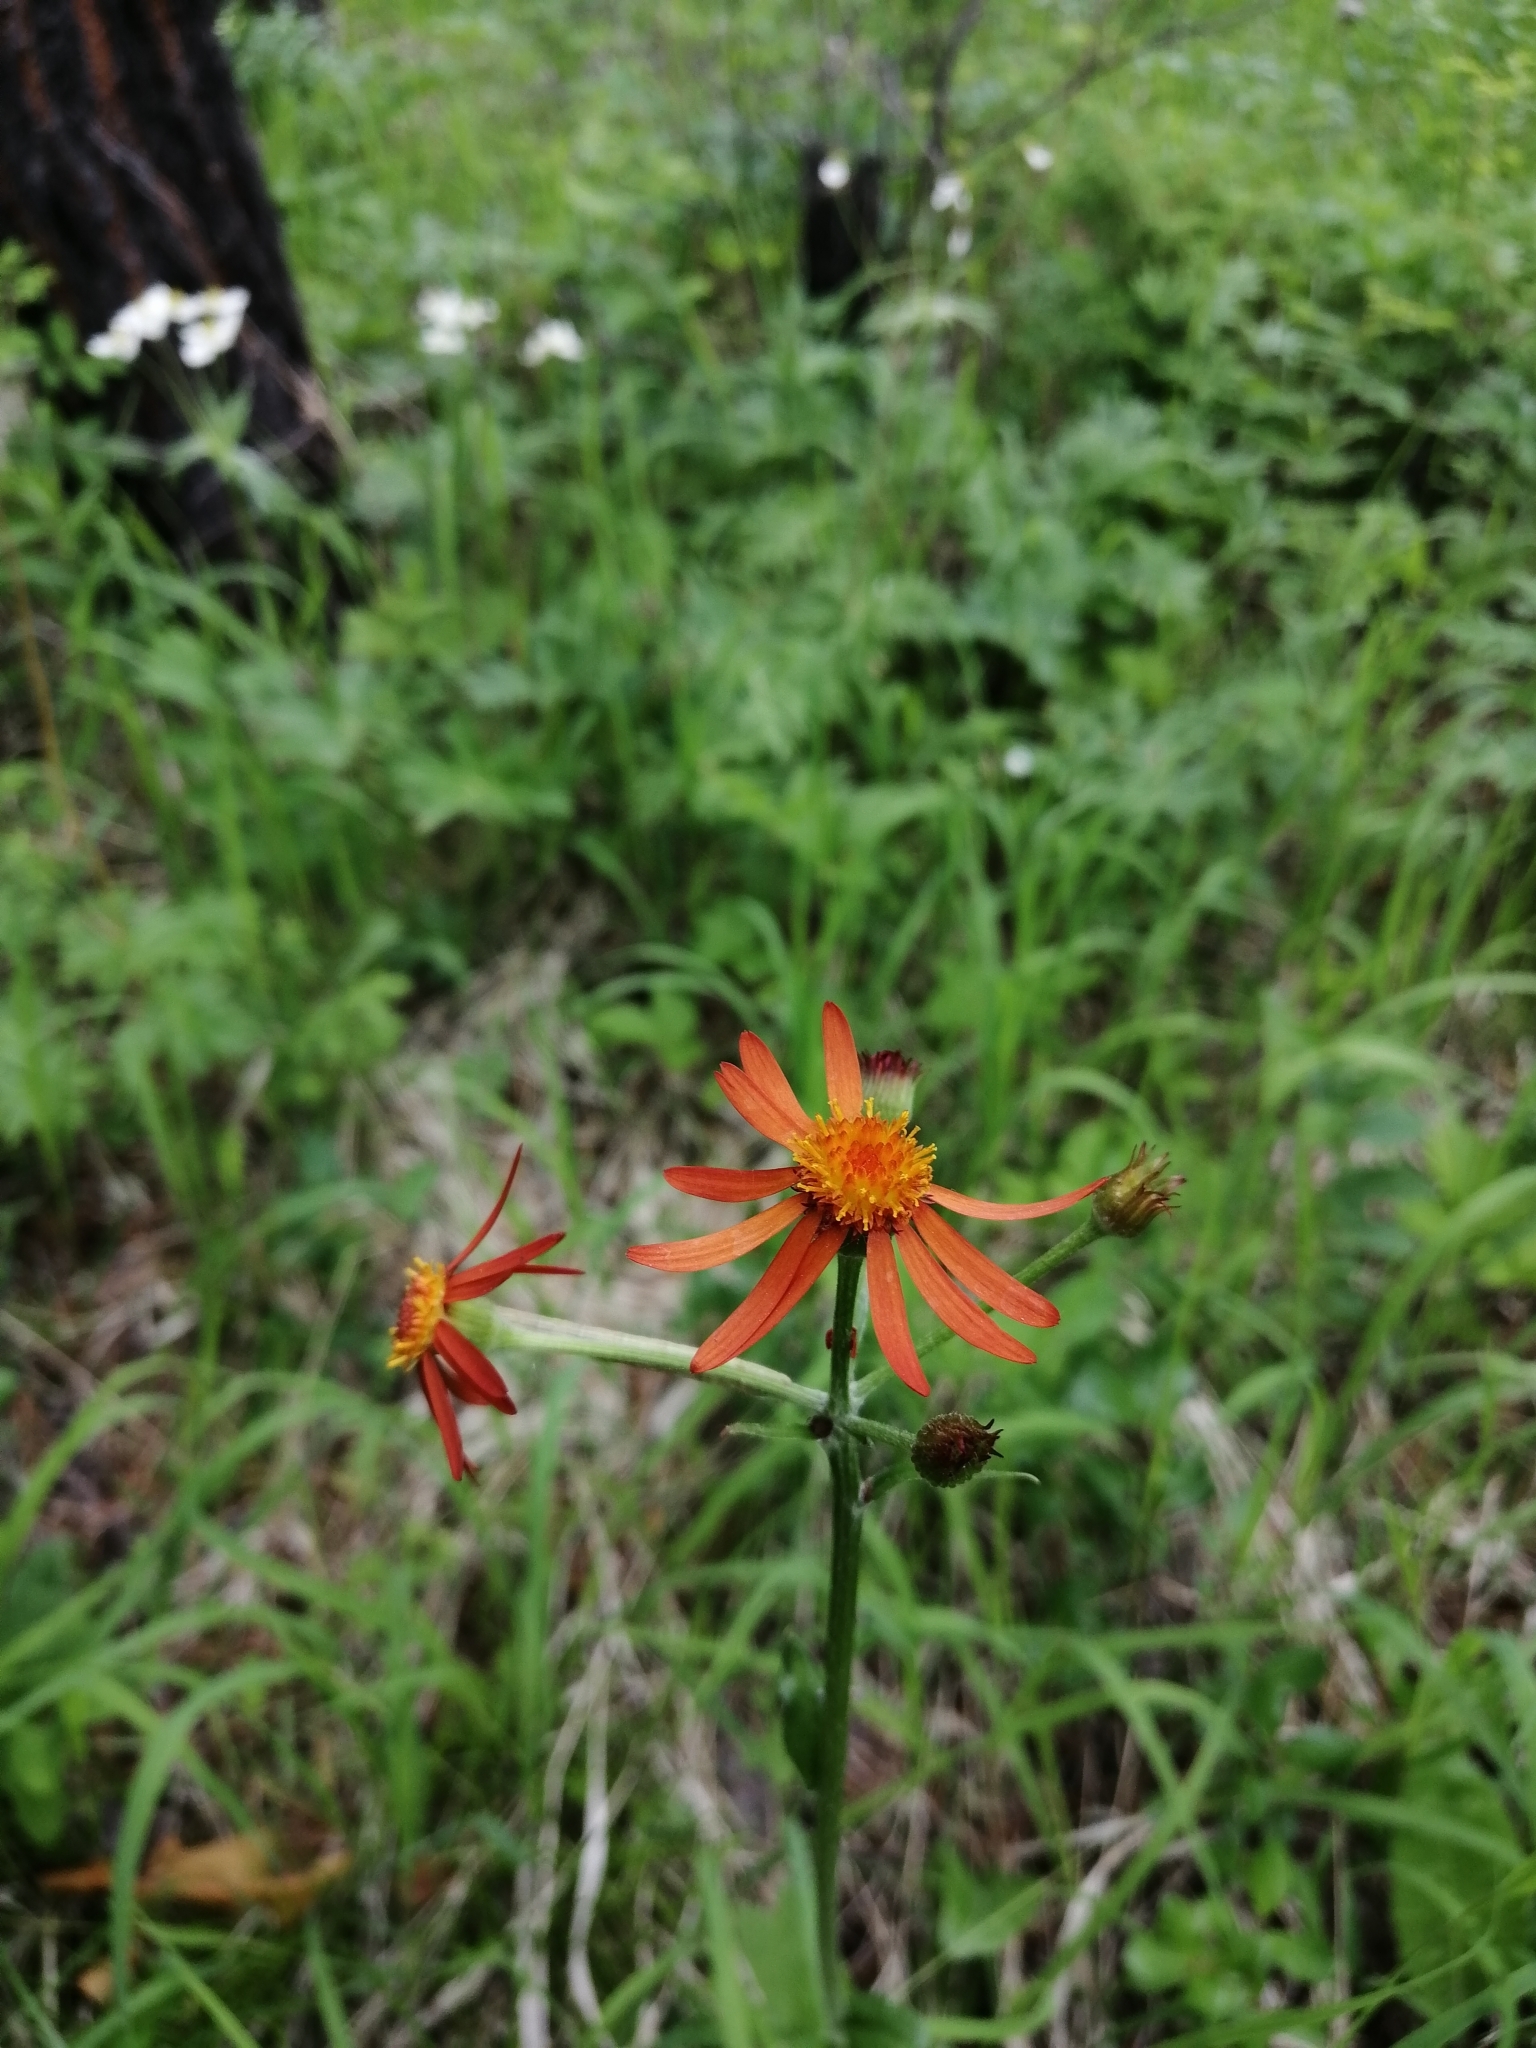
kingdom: Plantae
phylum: Tracheophyta
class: Magnoliopsida
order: Asterales
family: Asteraceae
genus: Tephroseris
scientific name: Tephroseris porphyrantha
